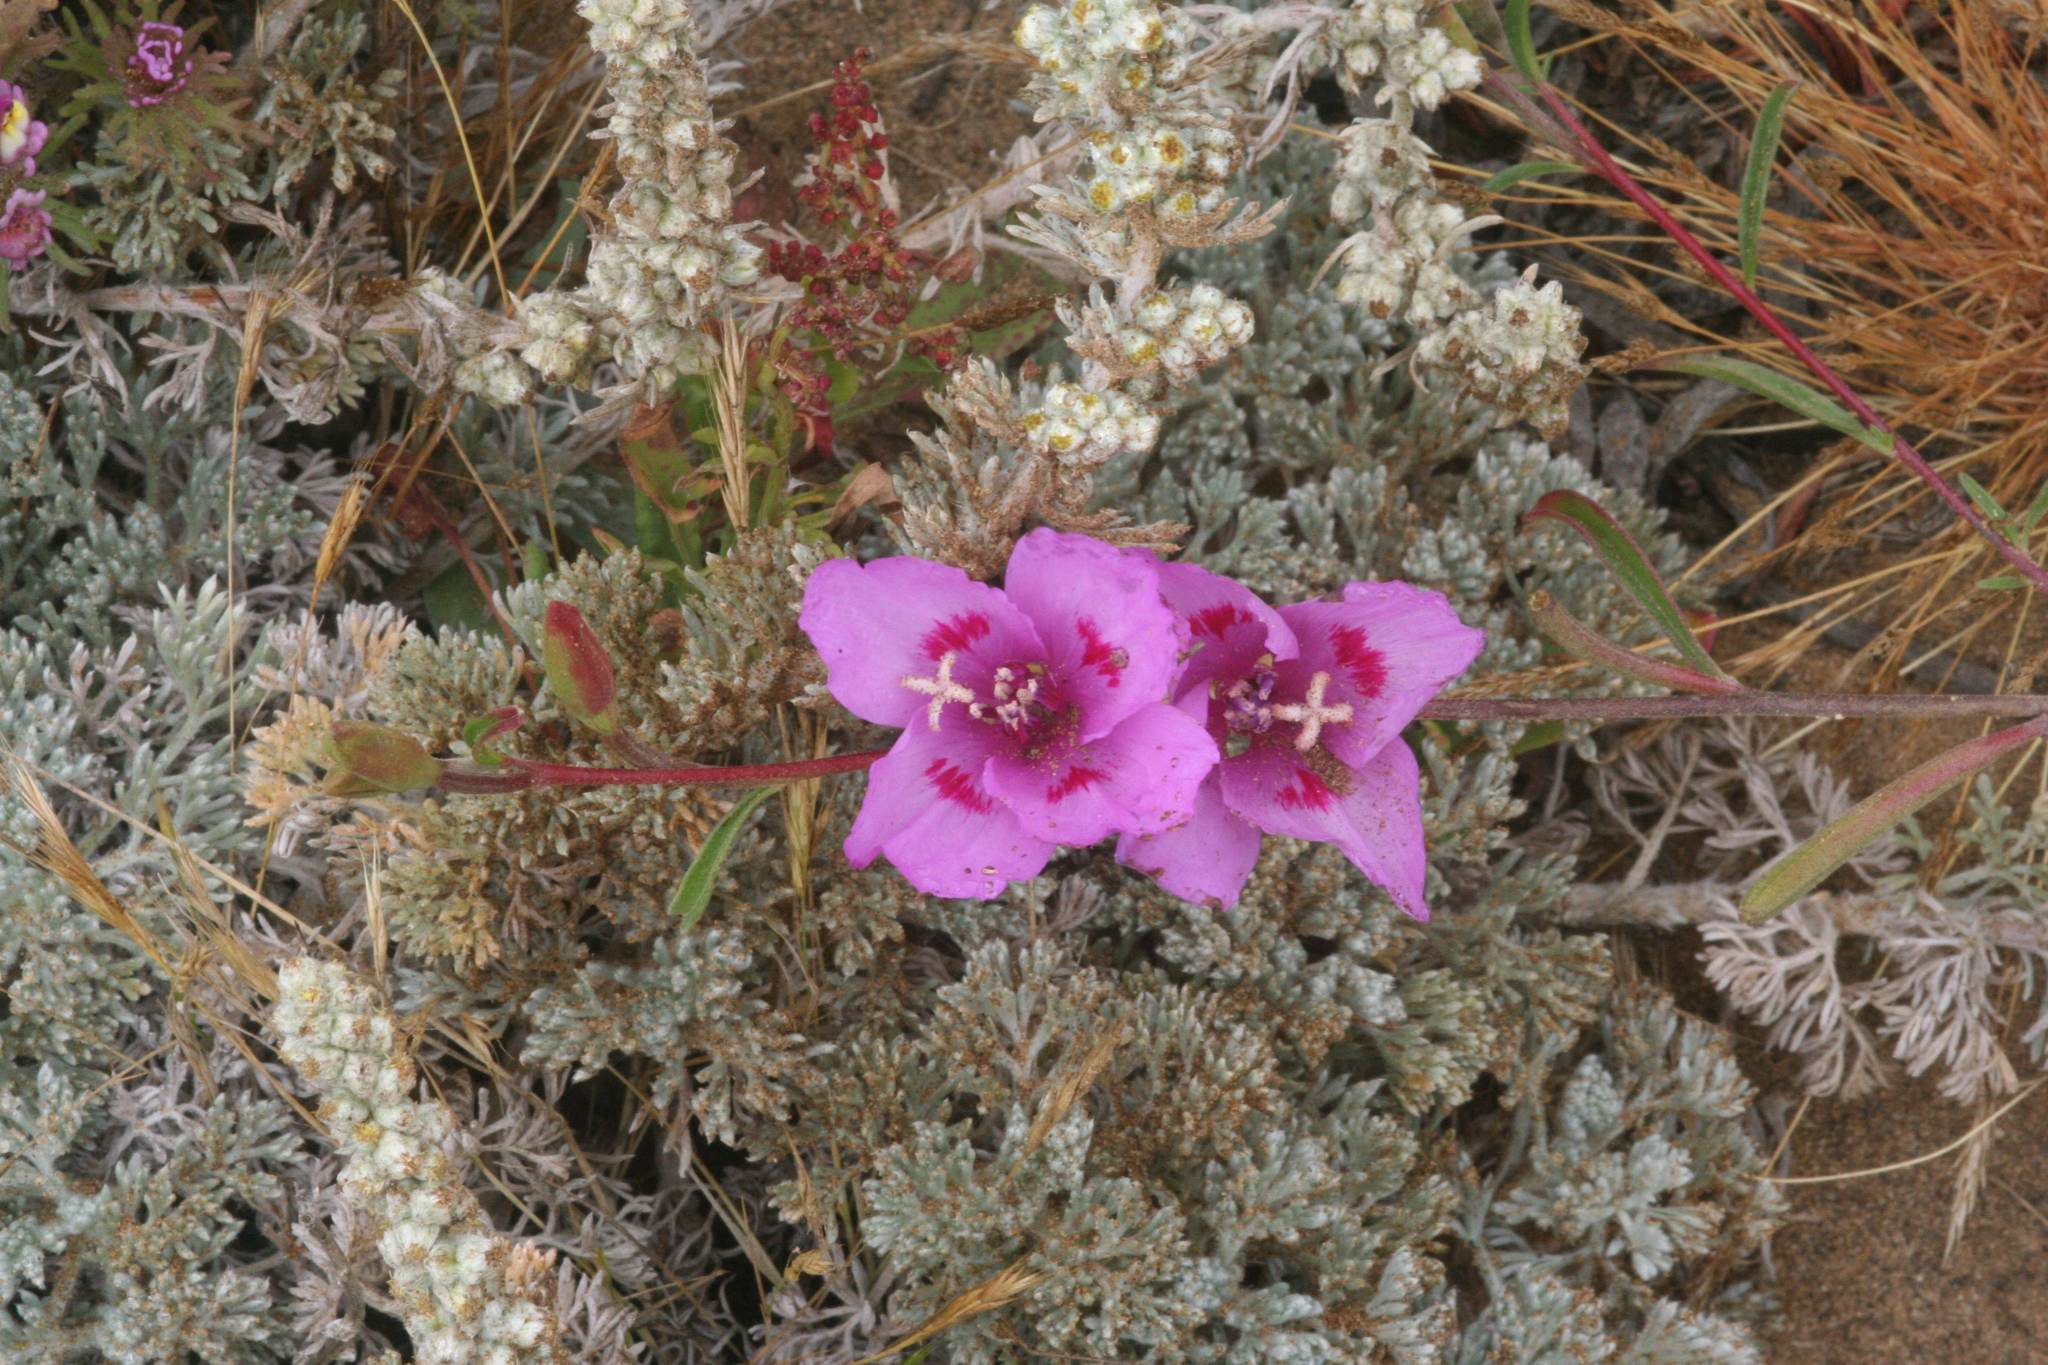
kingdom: Plantae
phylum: Tracheophyta
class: Magnoliopsida
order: Myrtales
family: Onagraceae
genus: Clarkia
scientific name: Clarkia amoena
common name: Godetia
